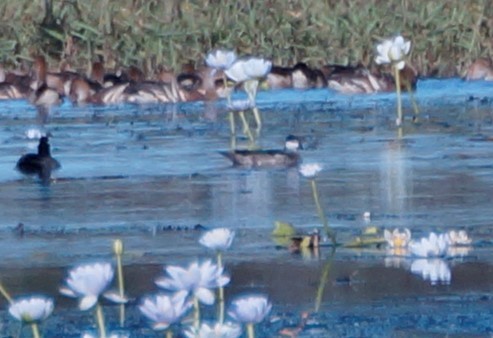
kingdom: Animalia
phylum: Chordata
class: Aves
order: Anseriformes
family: Anatidae
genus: Nettapus
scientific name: Nettapus pulchellus
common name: Green pygmy-goose
